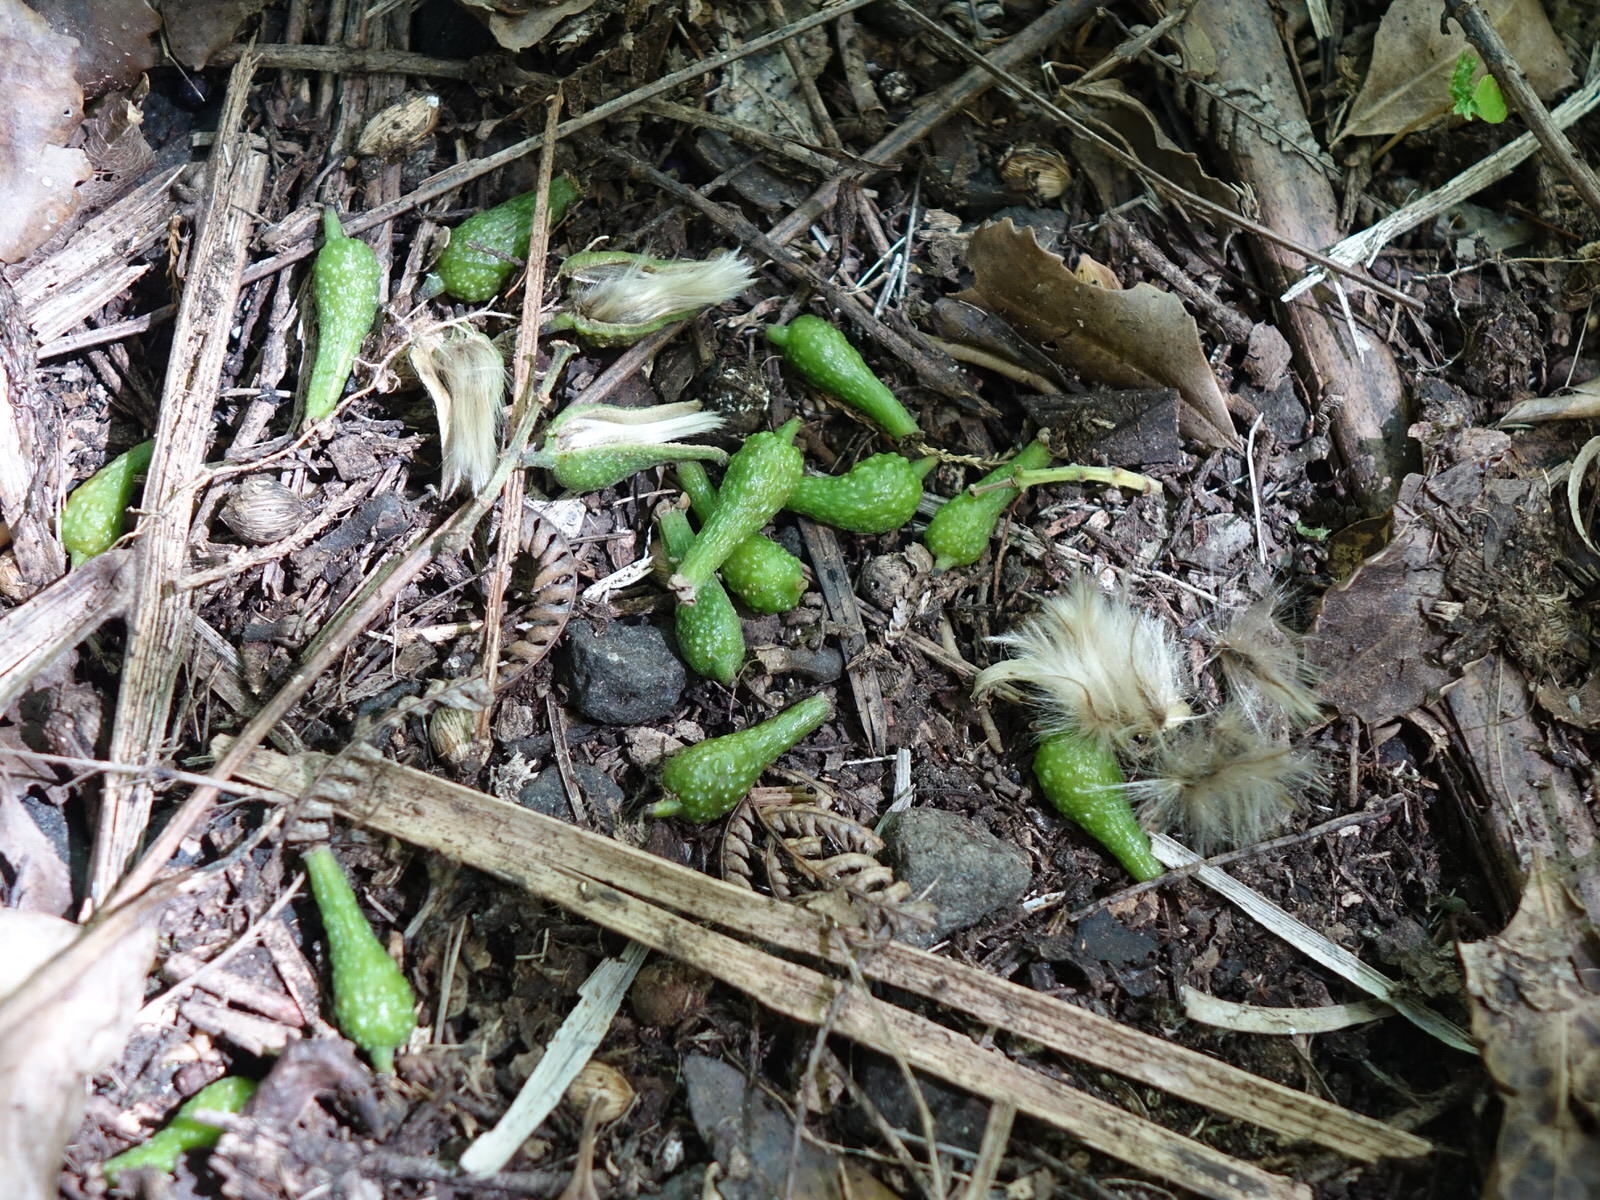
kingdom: Plantae
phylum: Tracheophyta
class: Magnoliopsida
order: Laurales
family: Atherospermataceae
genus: Laurelia
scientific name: Laurelia novae-zelandiae
